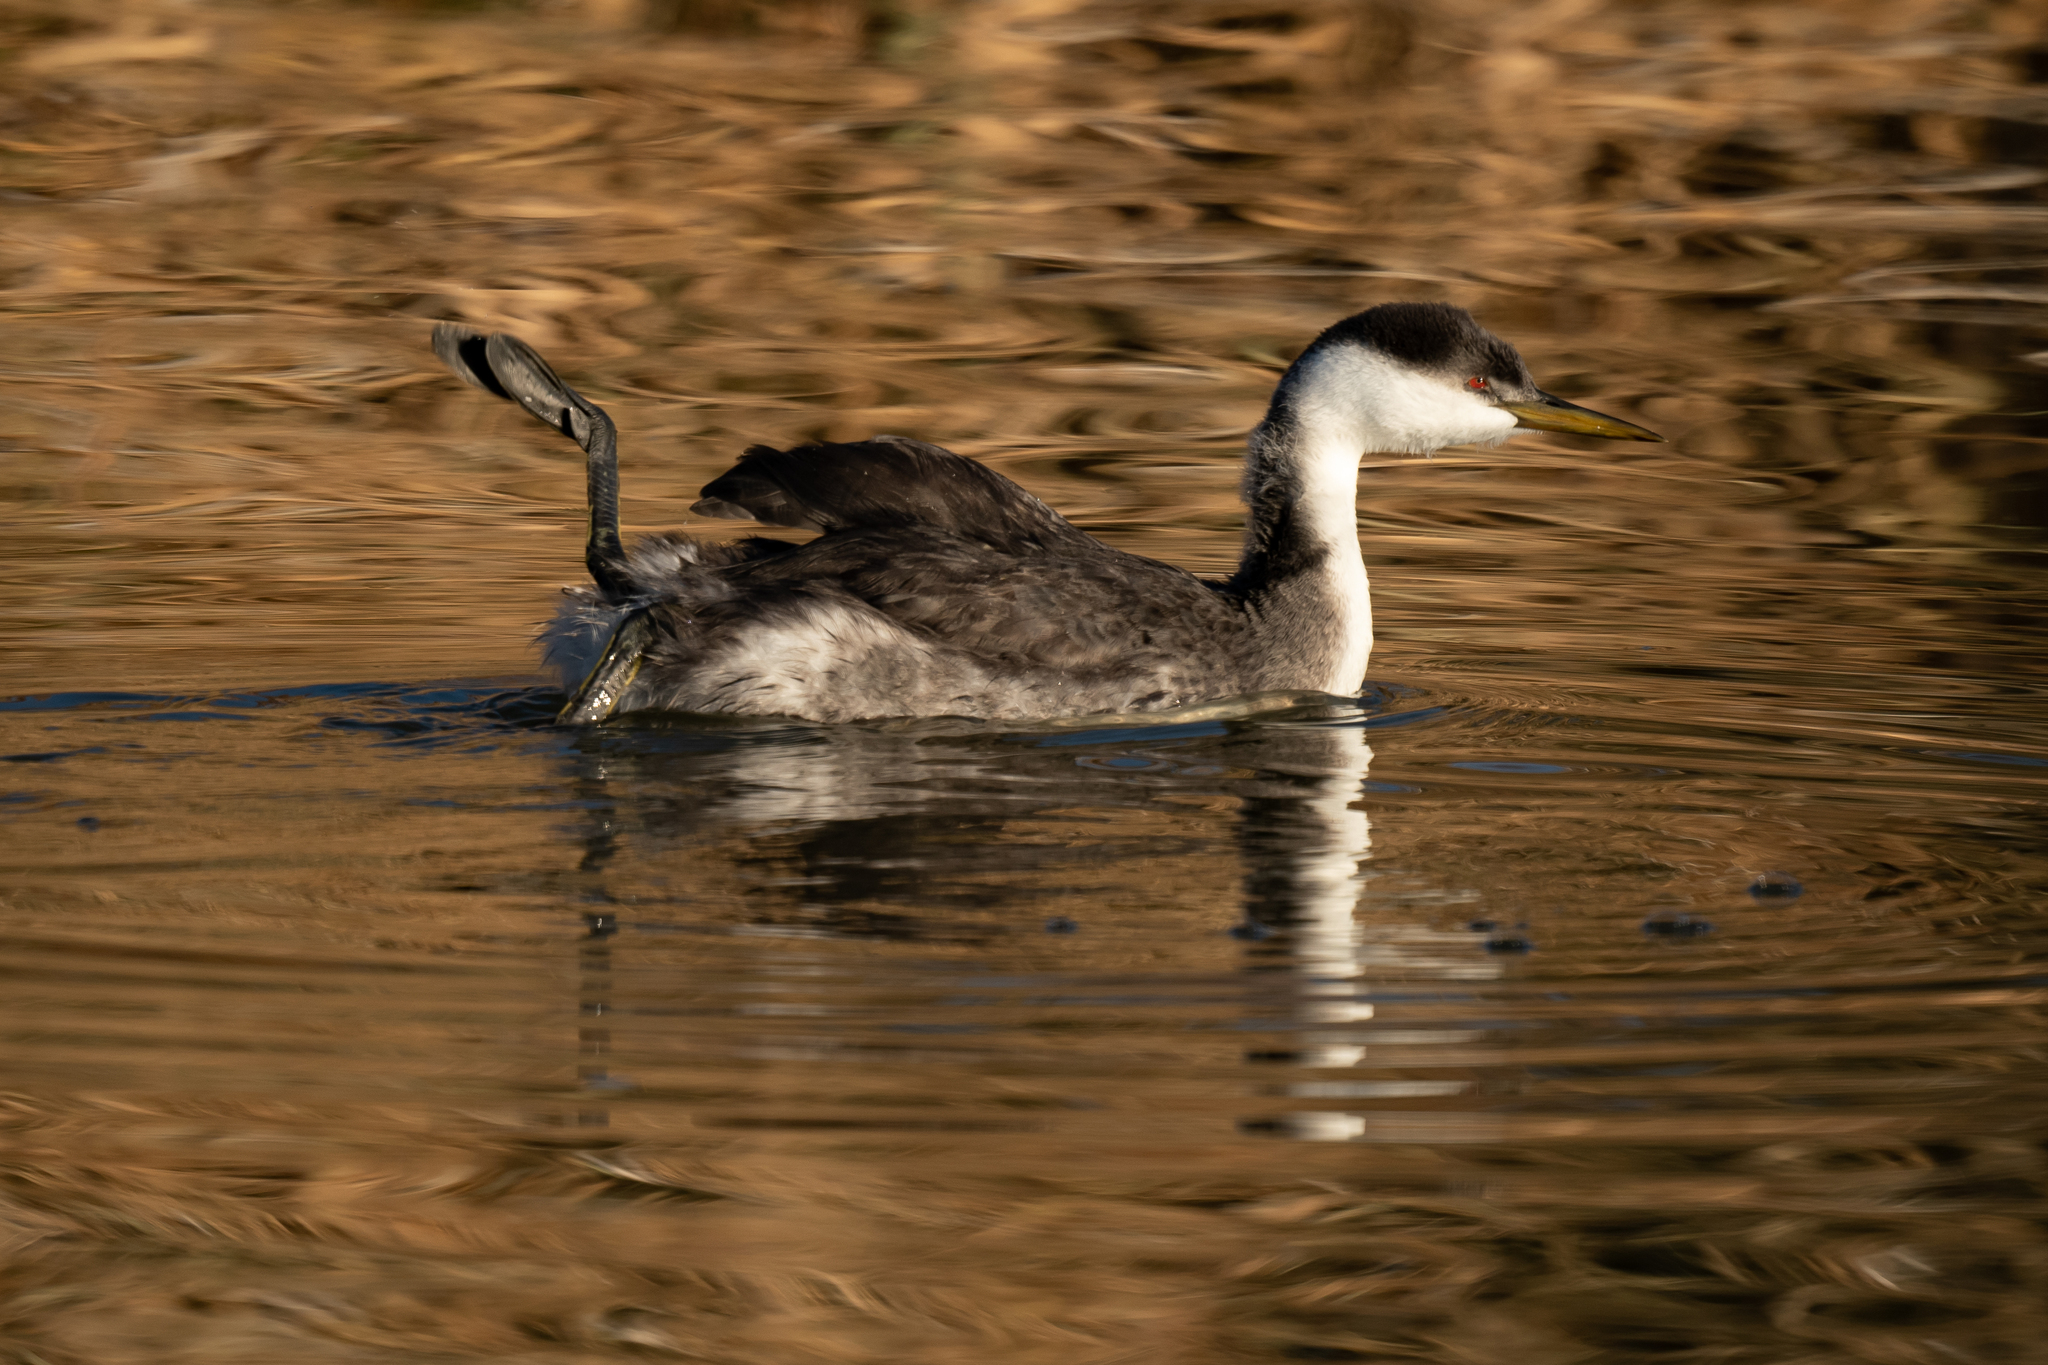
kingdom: Animalia
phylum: Chordata
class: Aves
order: Podicipediformes
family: Podicipedidae
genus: Aechmophorus
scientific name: Aechmophorus occidentalis
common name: Western grebe
